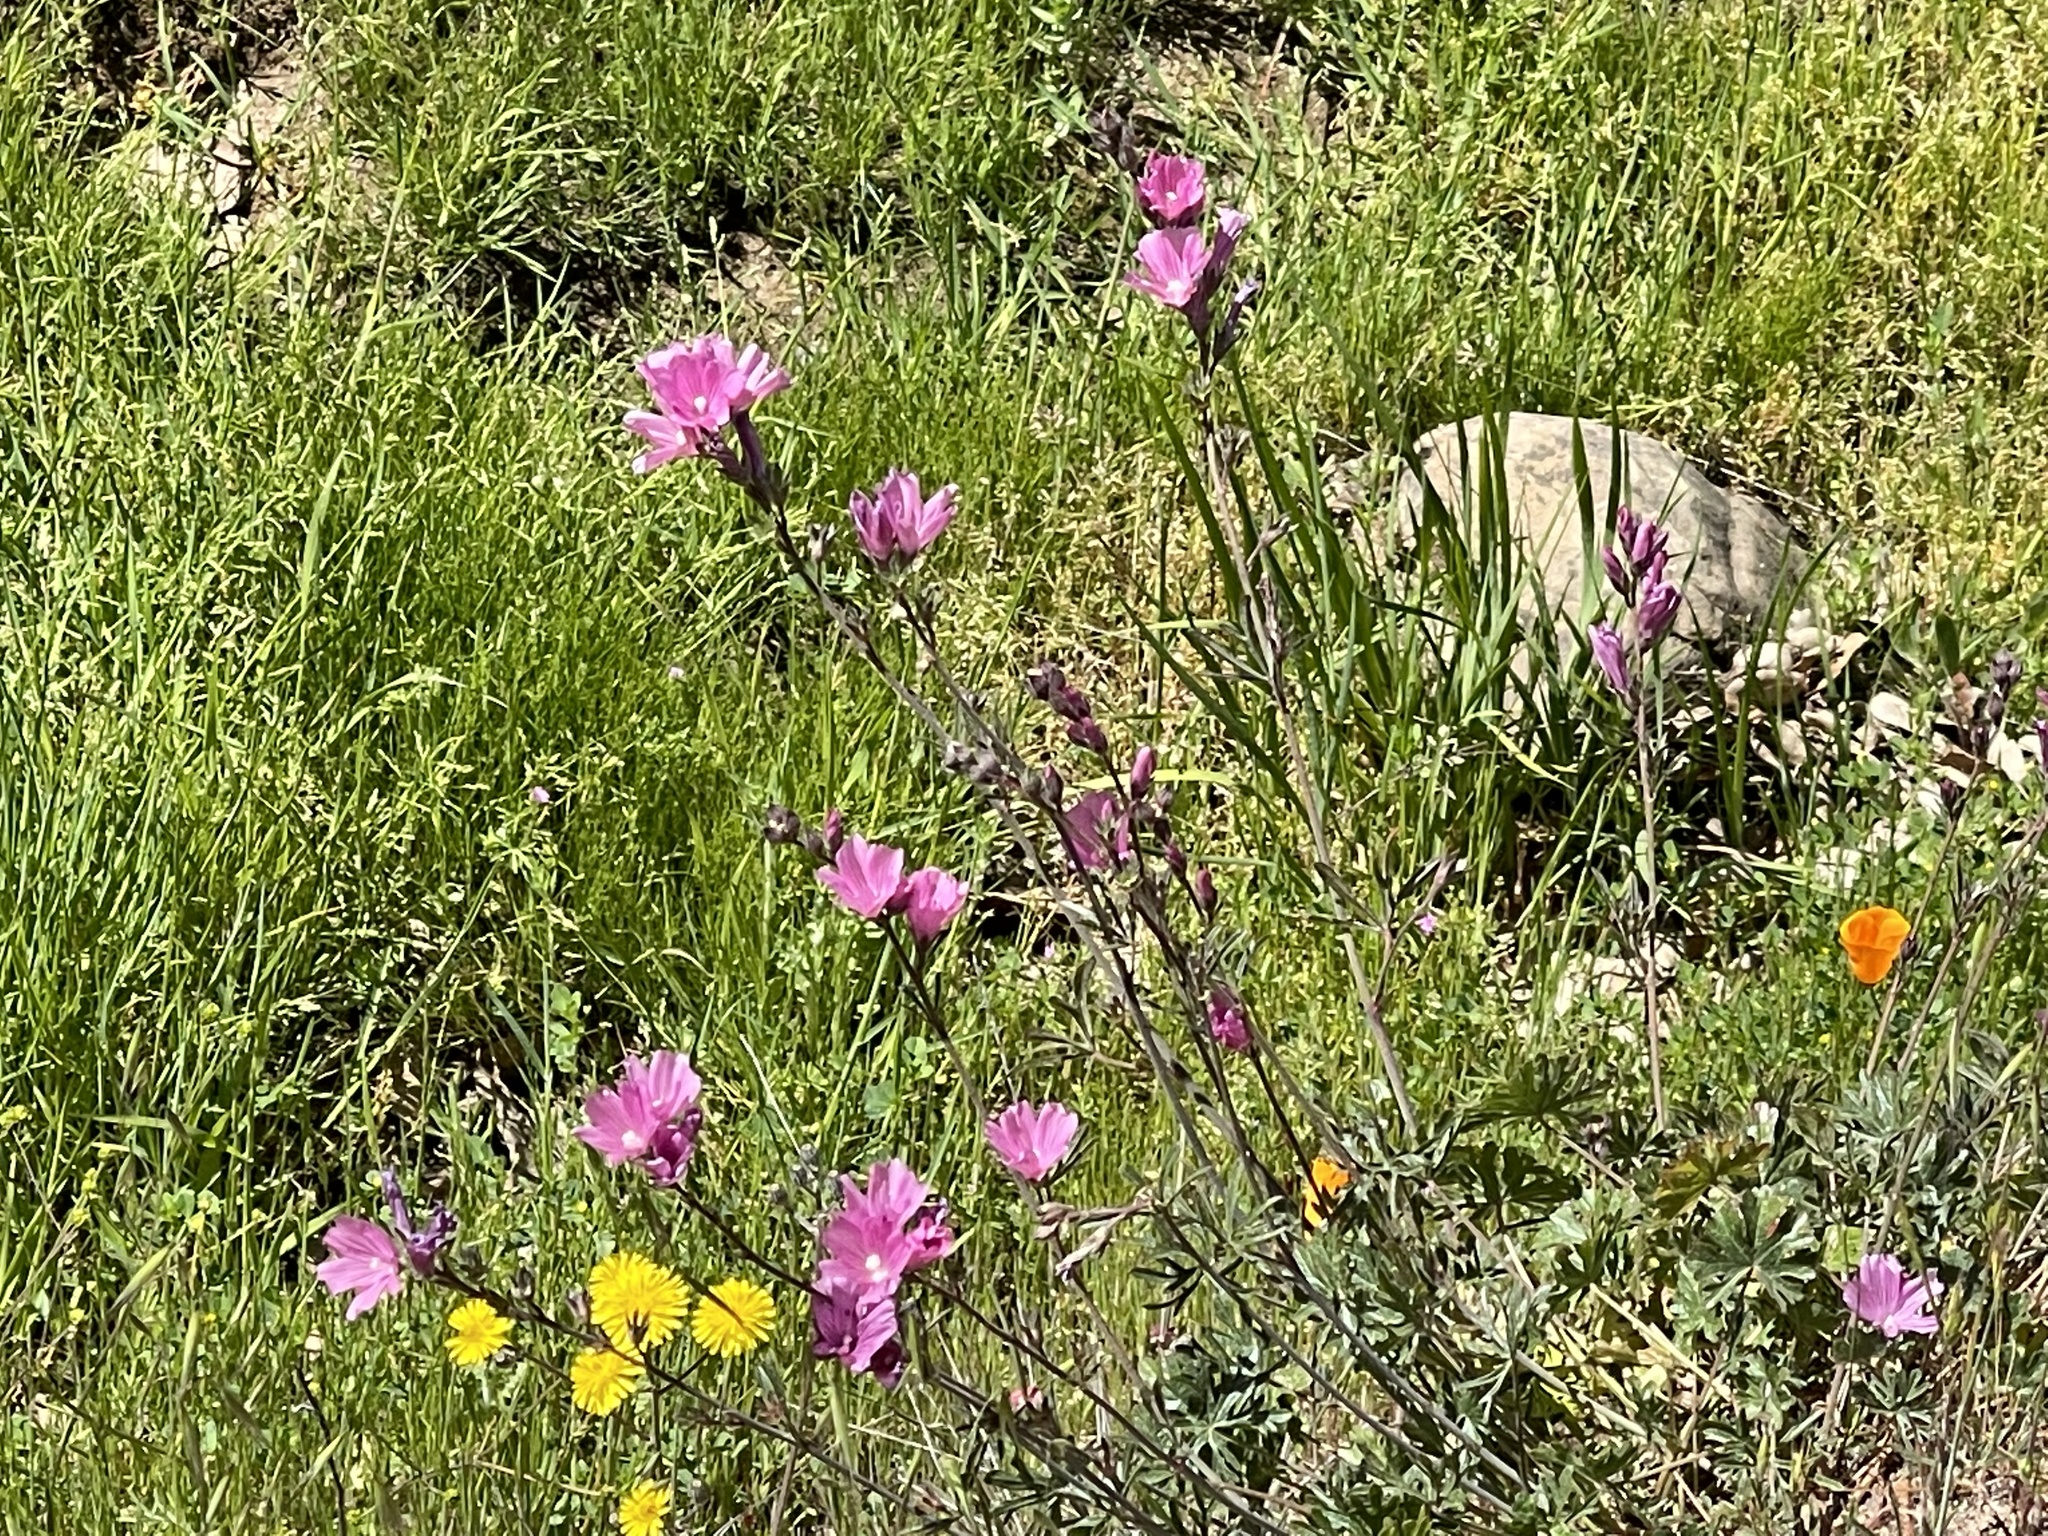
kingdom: Plantae
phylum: Tracheophyta
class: Magnoliopsida
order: Malvales
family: Malvaceae
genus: Sidalcea
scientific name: Sidalcea malviflora
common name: Greek mallow
